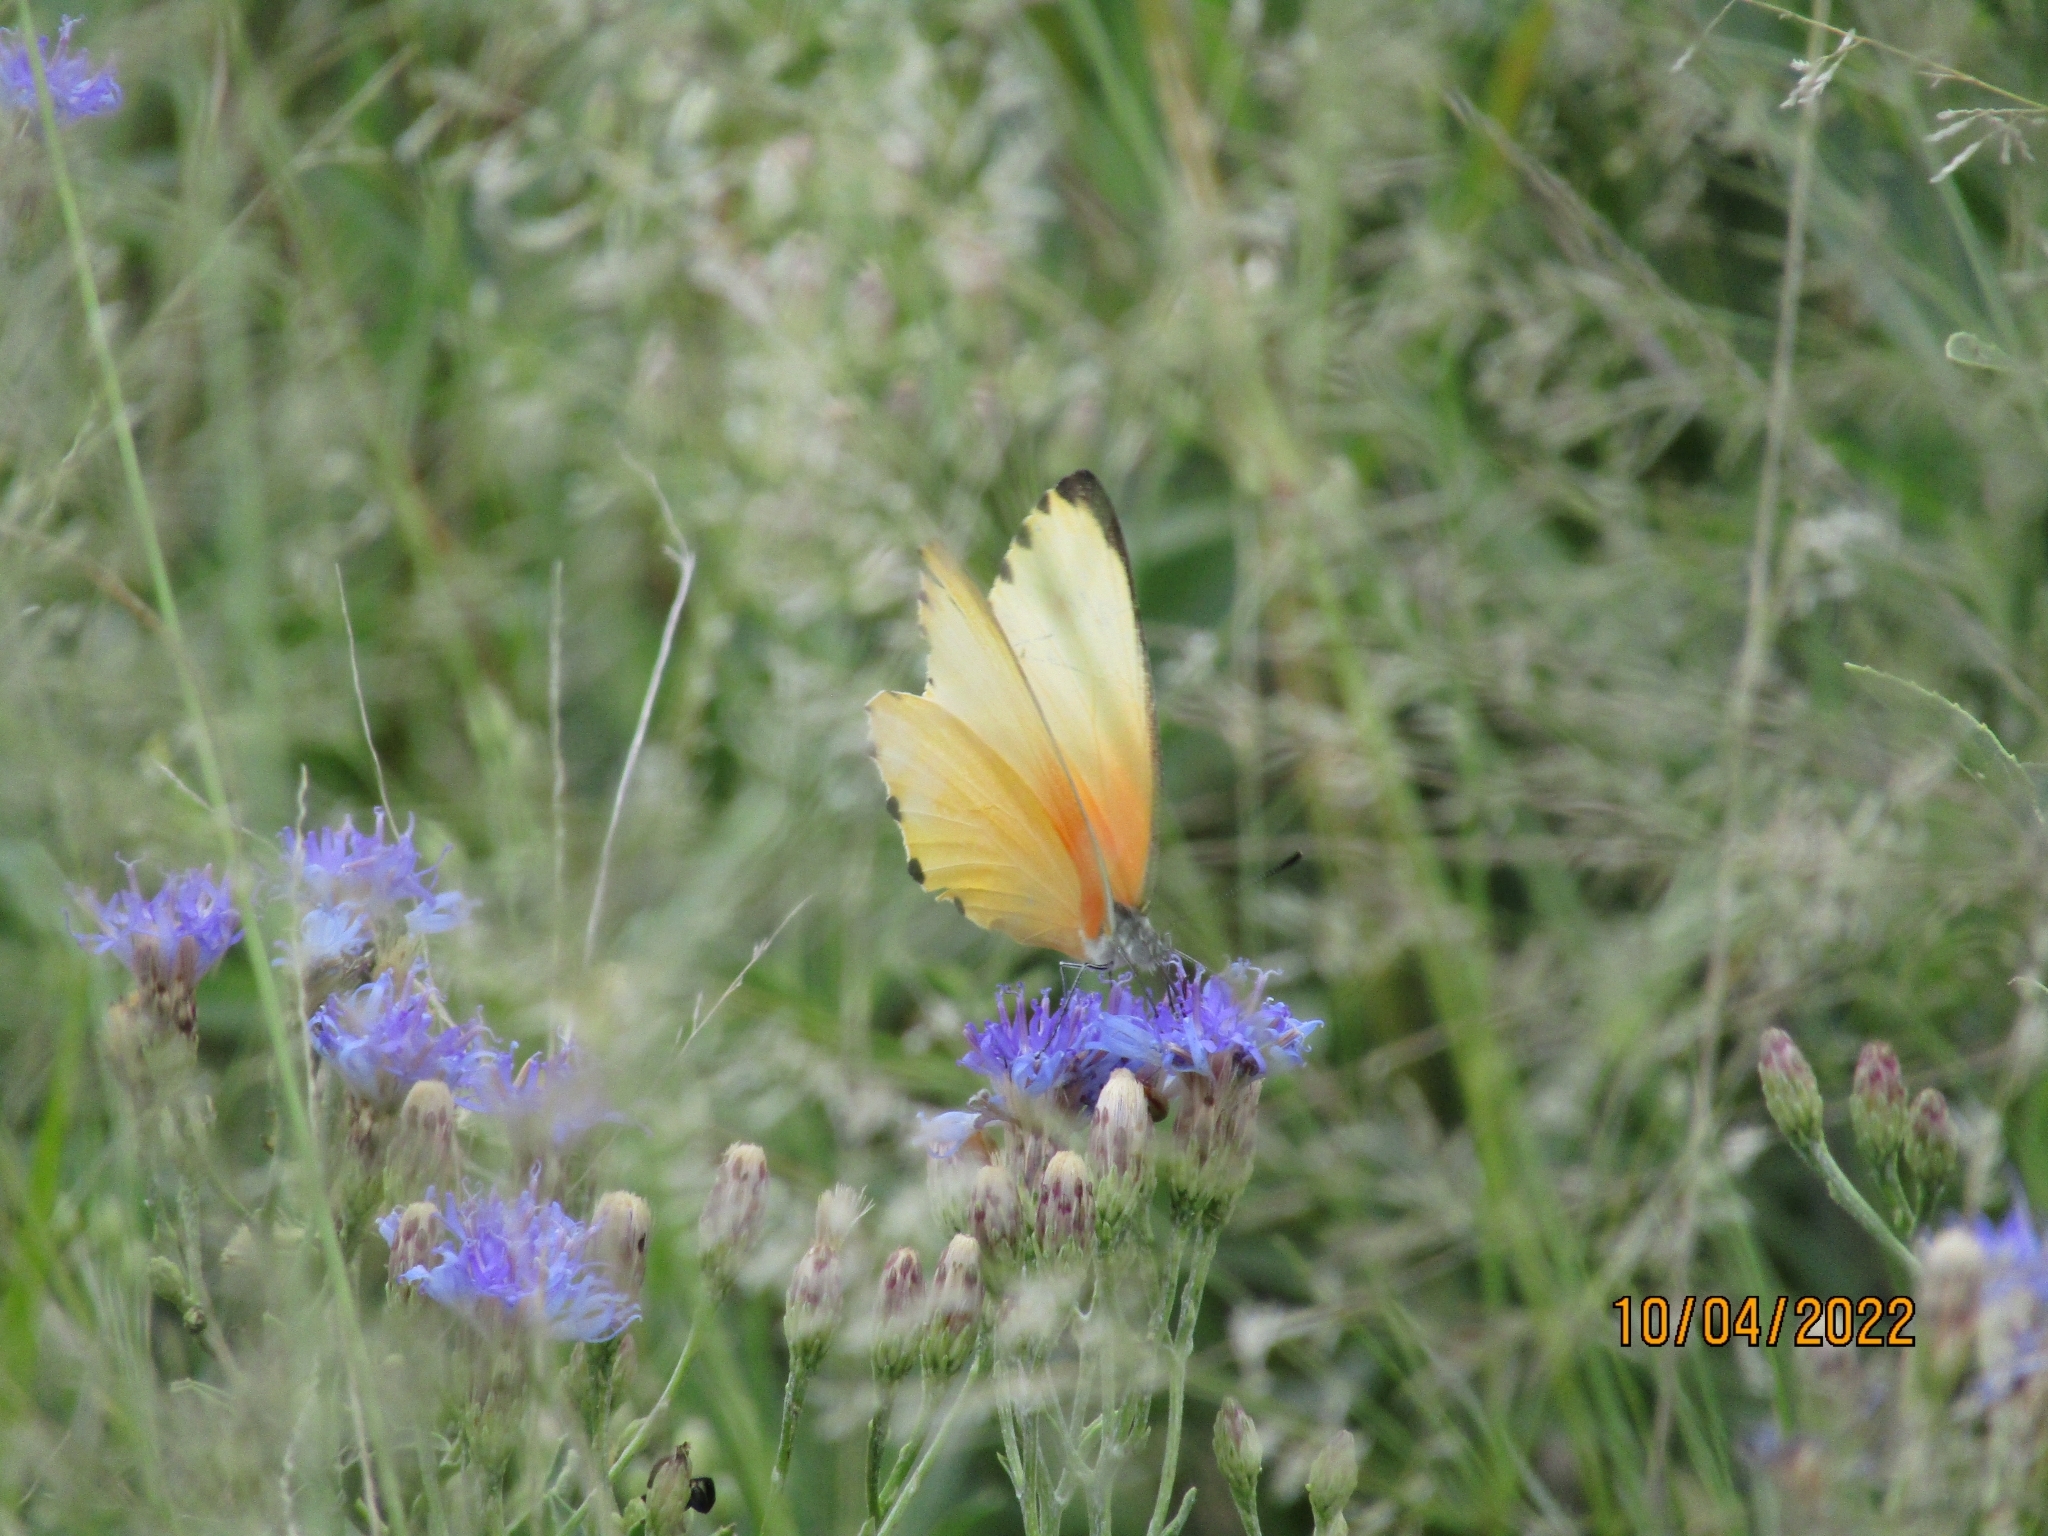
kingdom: Animalia
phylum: Arthropoda
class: Insecta
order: Lepidoptera
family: Pieridae
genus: Mylothris
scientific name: Mylothris agathina
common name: Eastern dotted border
